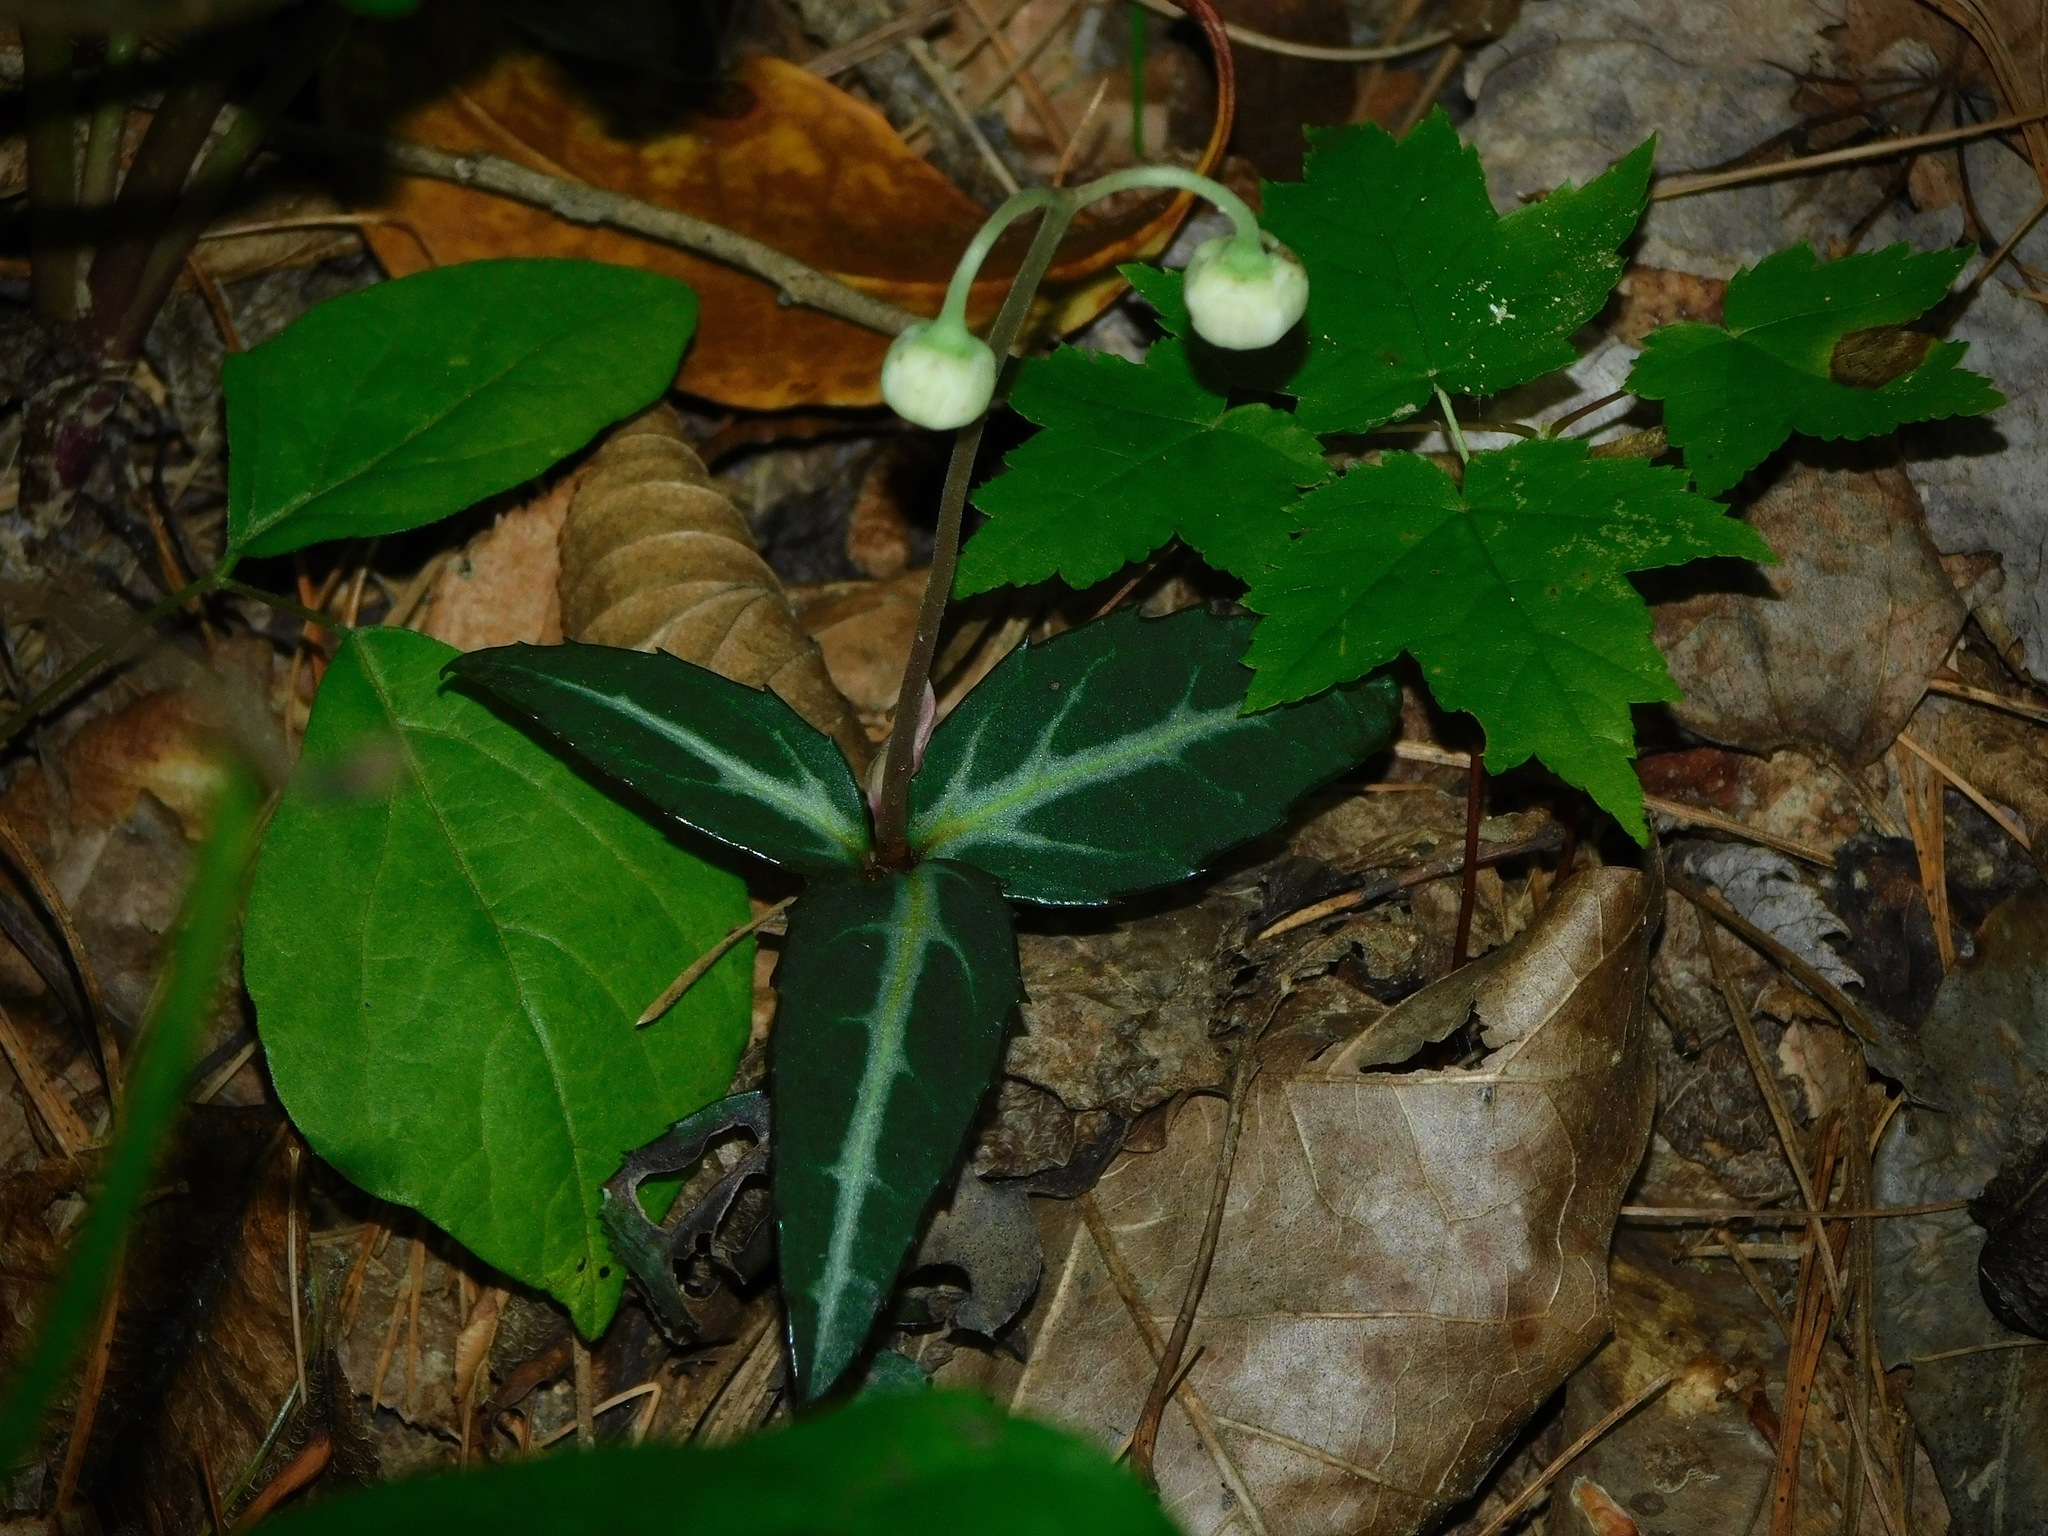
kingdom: Plantae
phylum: Tracheophyta
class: Magnoliopsida
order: Ericales
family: Ericaceae
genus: Chimaphila
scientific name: Chimaphila maculata
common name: Spotted pipsissewa
